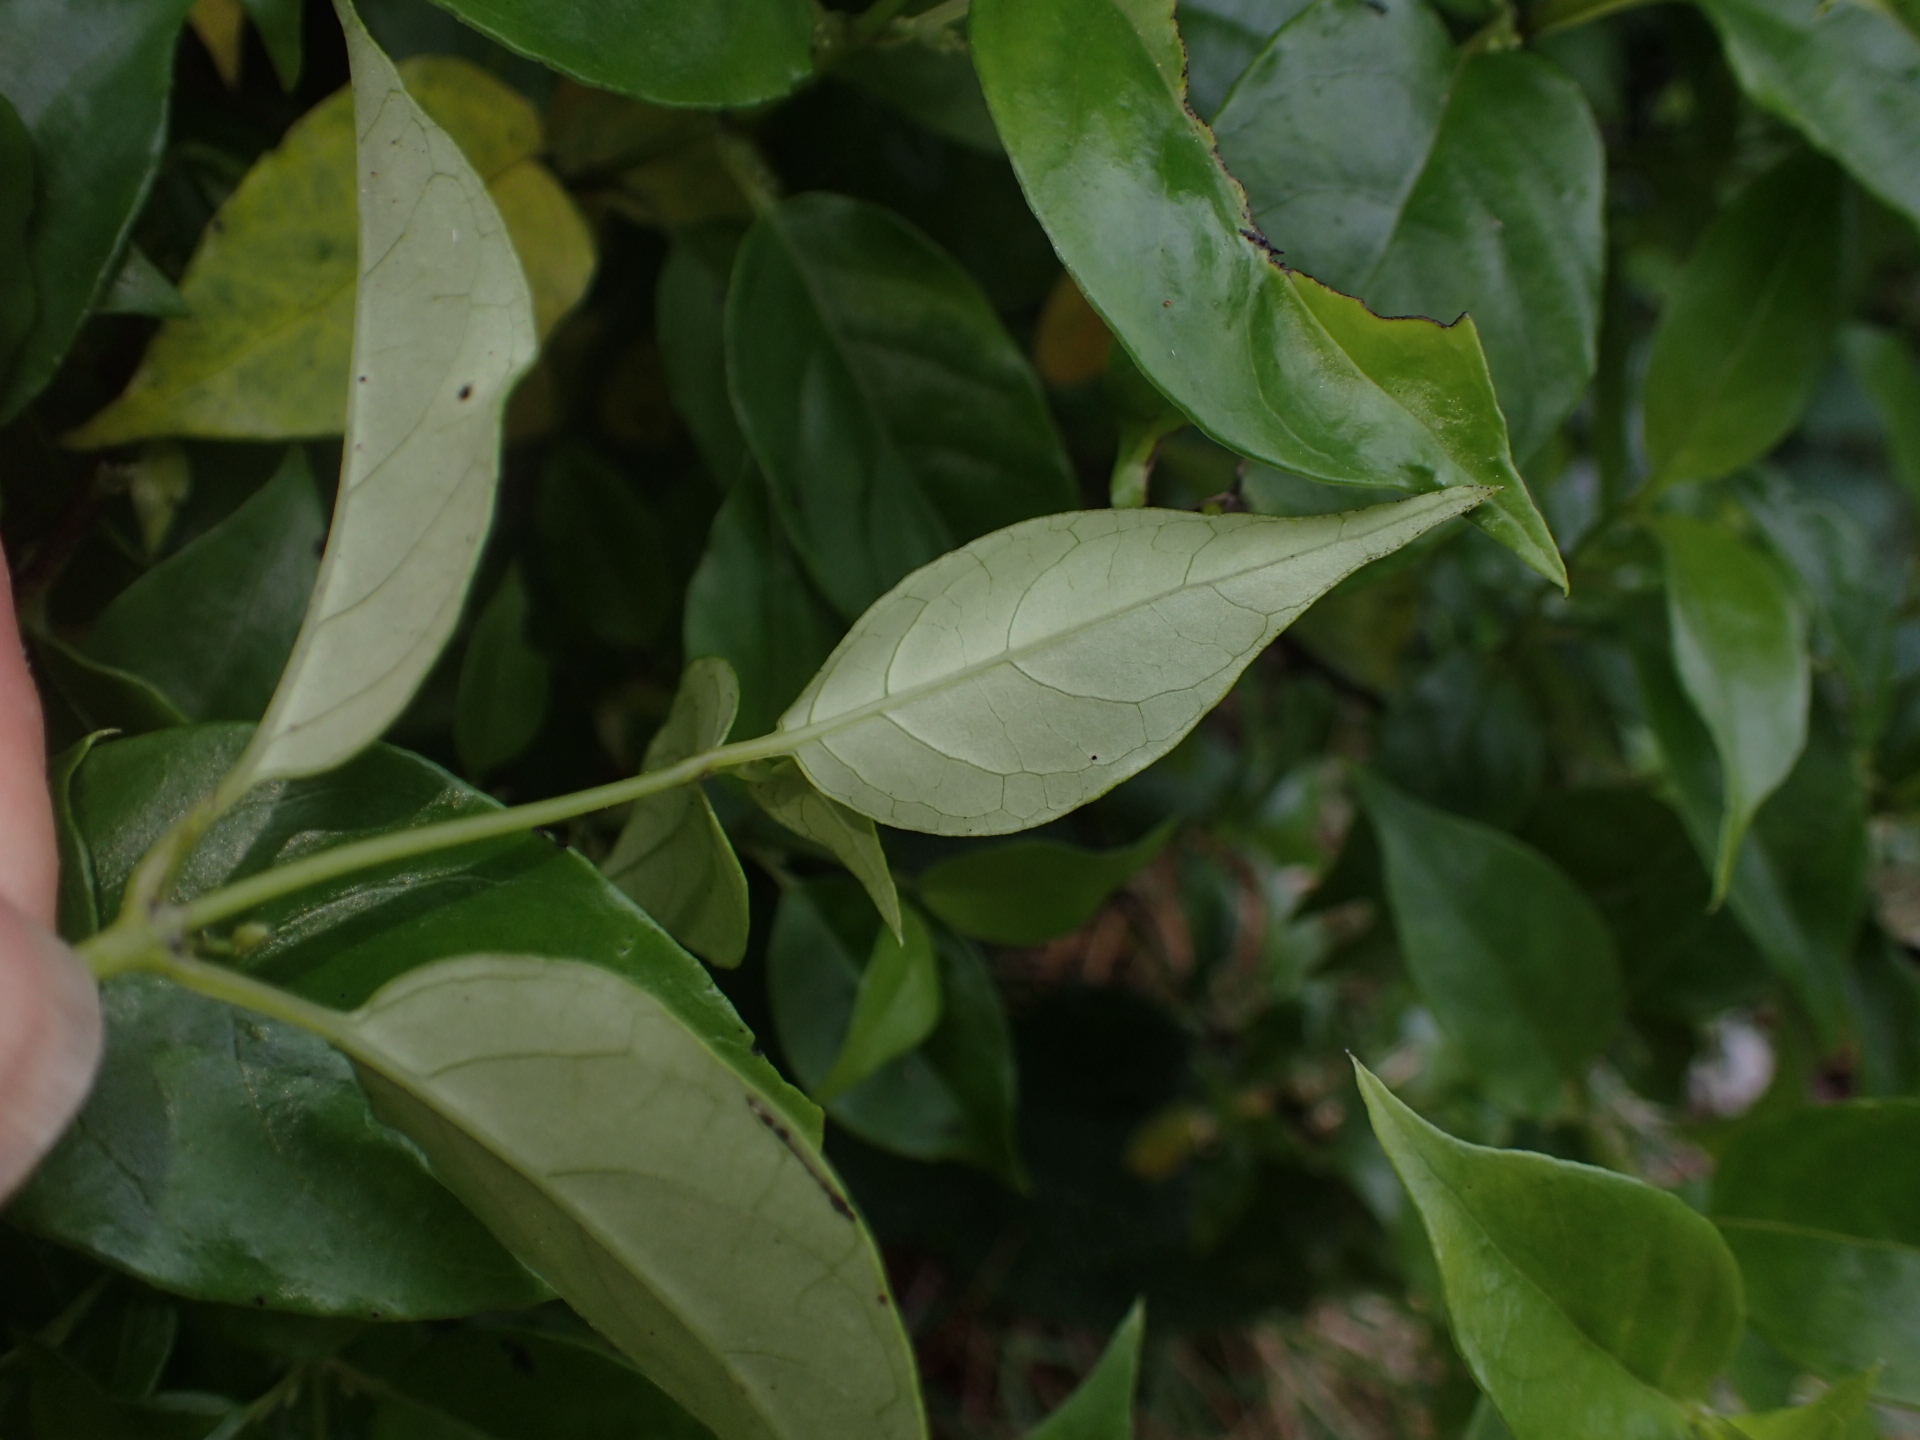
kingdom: Plantae
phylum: Tracheophyta
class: Magnoliopsida
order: Gentianales
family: Loganiaceae
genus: Geniostoma
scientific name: Geniostoma ligustrifolium
